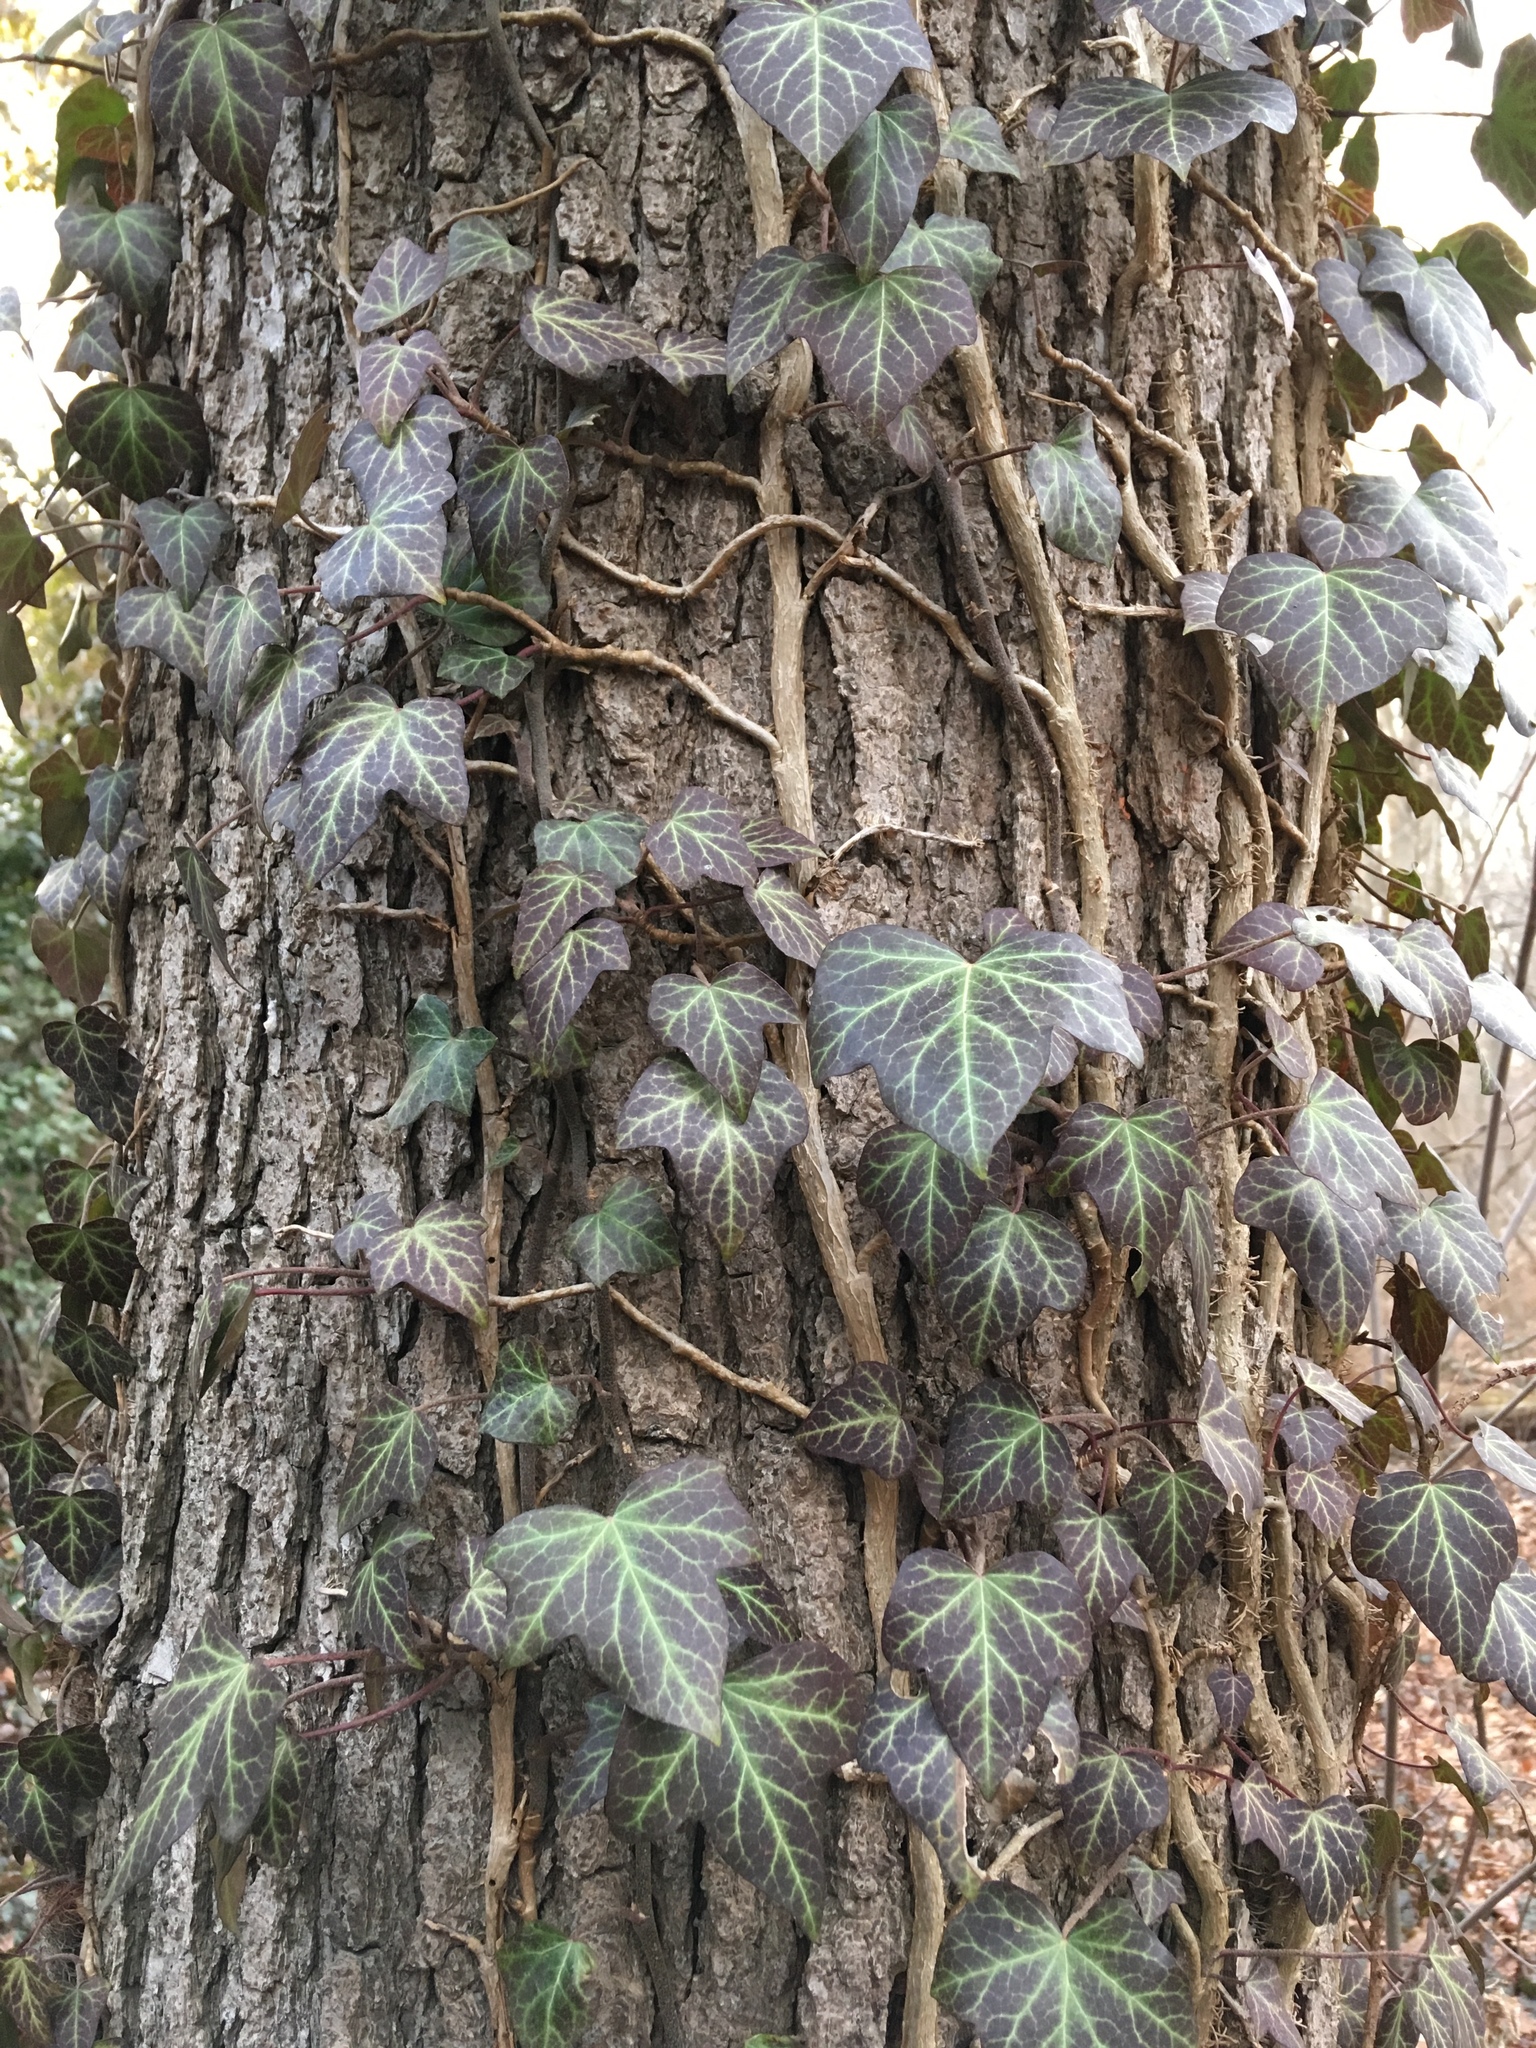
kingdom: Plantae
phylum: Tracheophyta
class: Magnoliopsida
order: Apiales
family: Araliaceae
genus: Hedera
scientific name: Hedera helix
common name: Ivy
